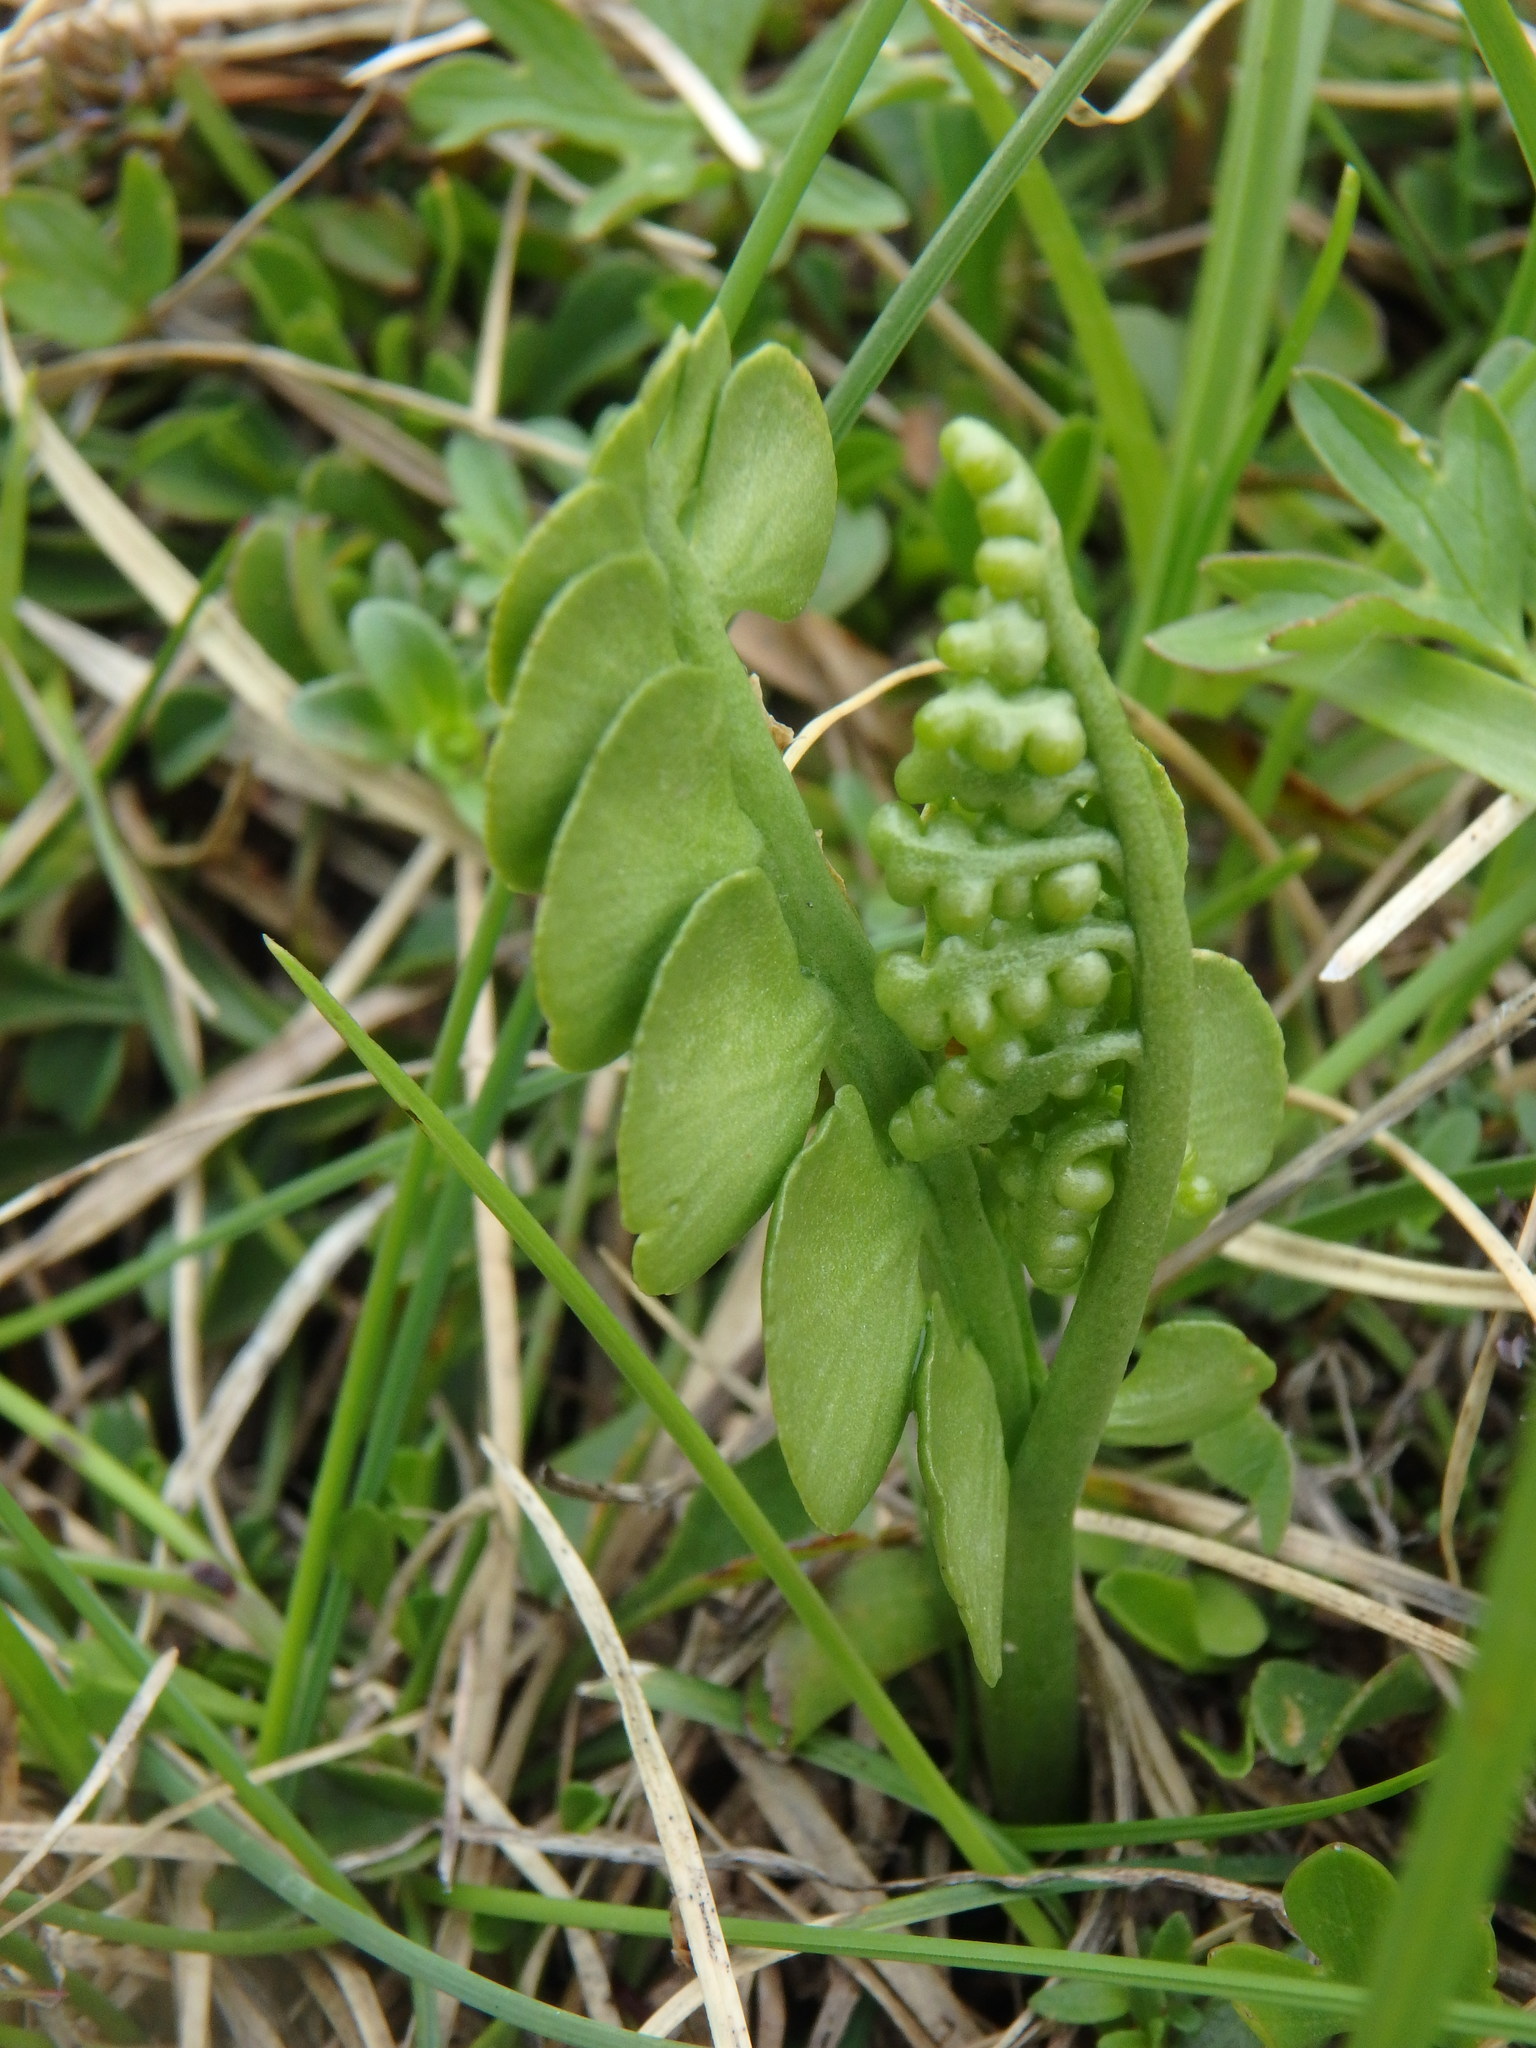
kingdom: Plantae
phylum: Tracheophyta
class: Polypodiopsida
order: Ophioglossales
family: Ophioglossaceae
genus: Botrychium
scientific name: Botrychium lunaria
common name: Moonwort
